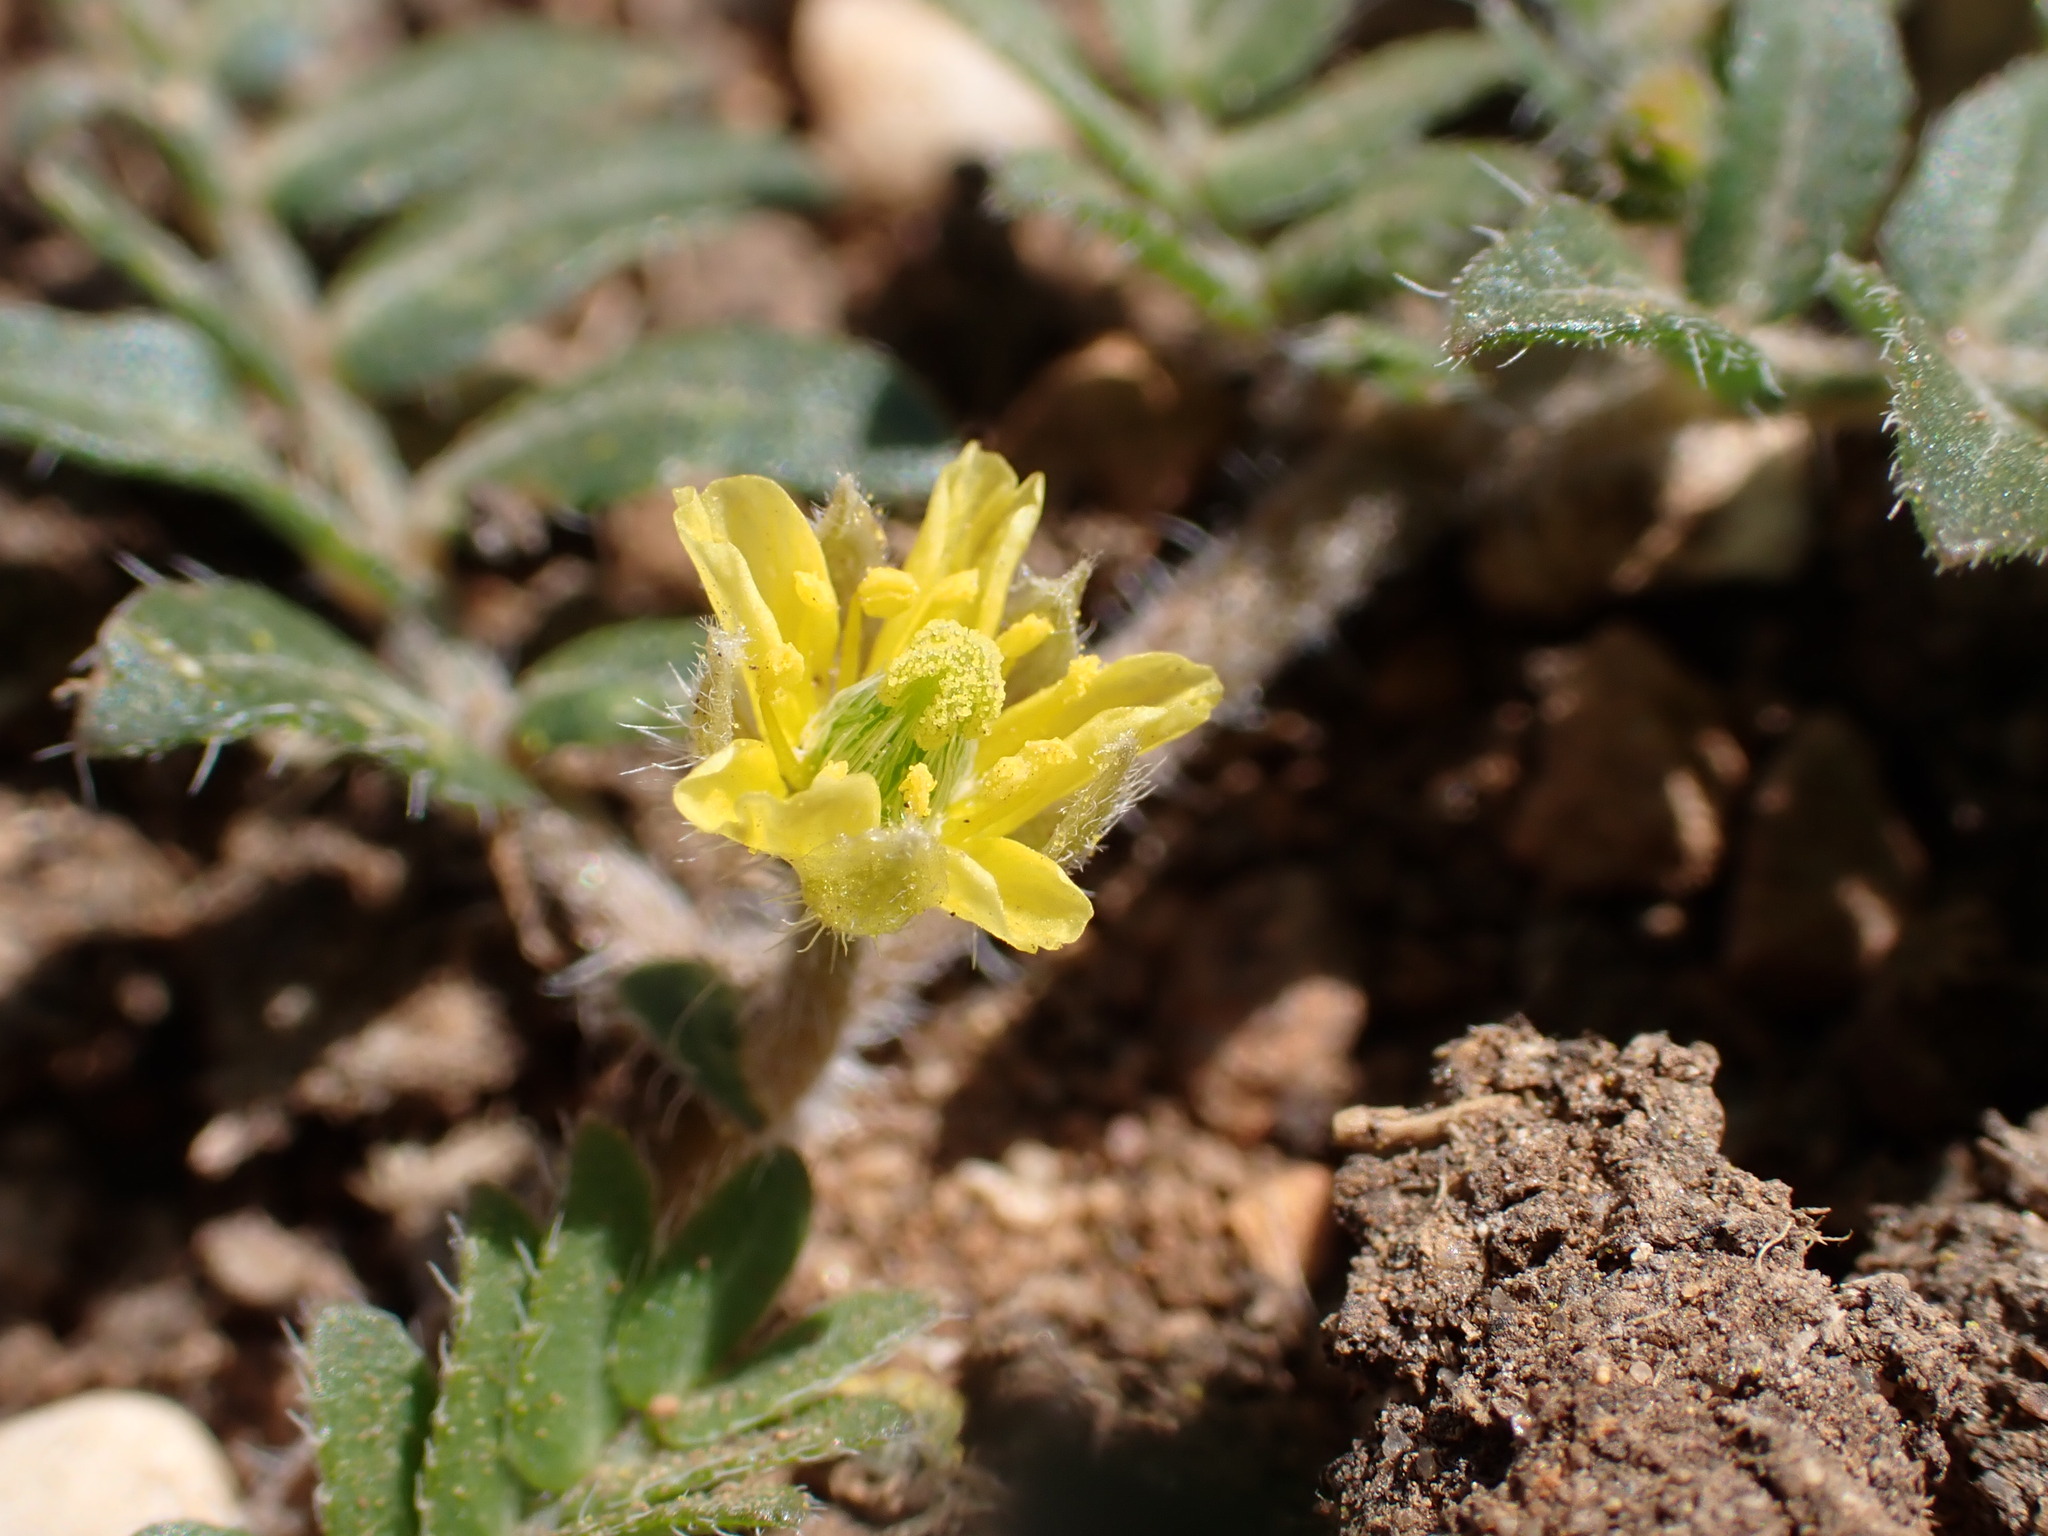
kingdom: Plantae
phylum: Tracheophyta
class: Magnoliopsida
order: Zygophyllales
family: Zygophyllaceae
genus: Tribulus
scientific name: Tribulus terrestris
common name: Puncturevine
